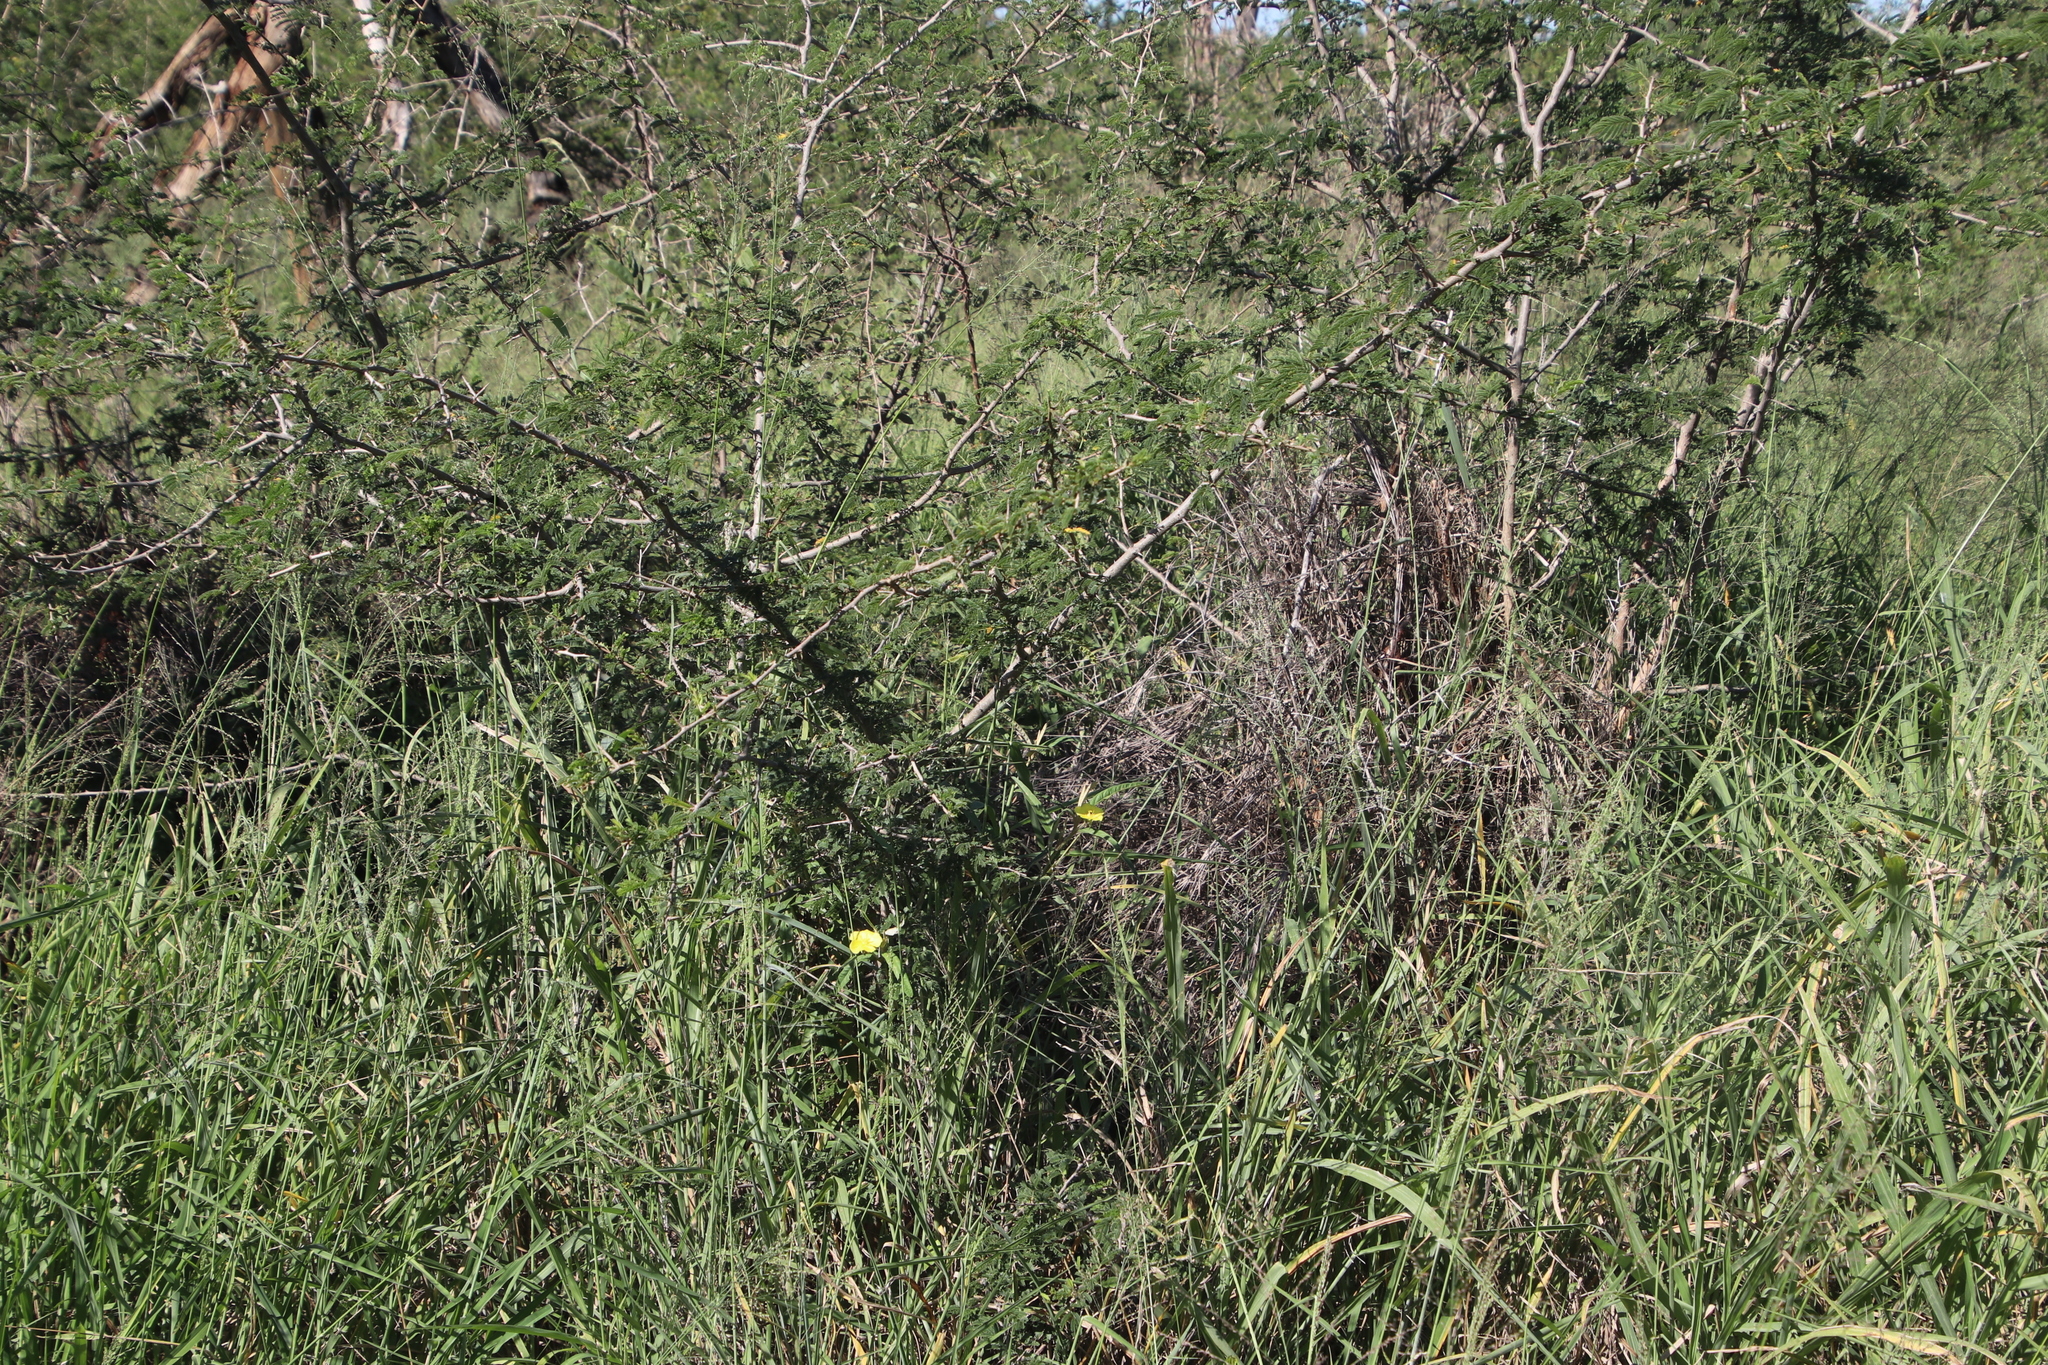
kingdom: Plantae
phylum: Tracheophyta
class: Magnoliopsida
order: Fabales
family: Fabaceae
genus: Dichrostachys
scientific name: Dichrostachys cinerea
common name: Sicklebush
